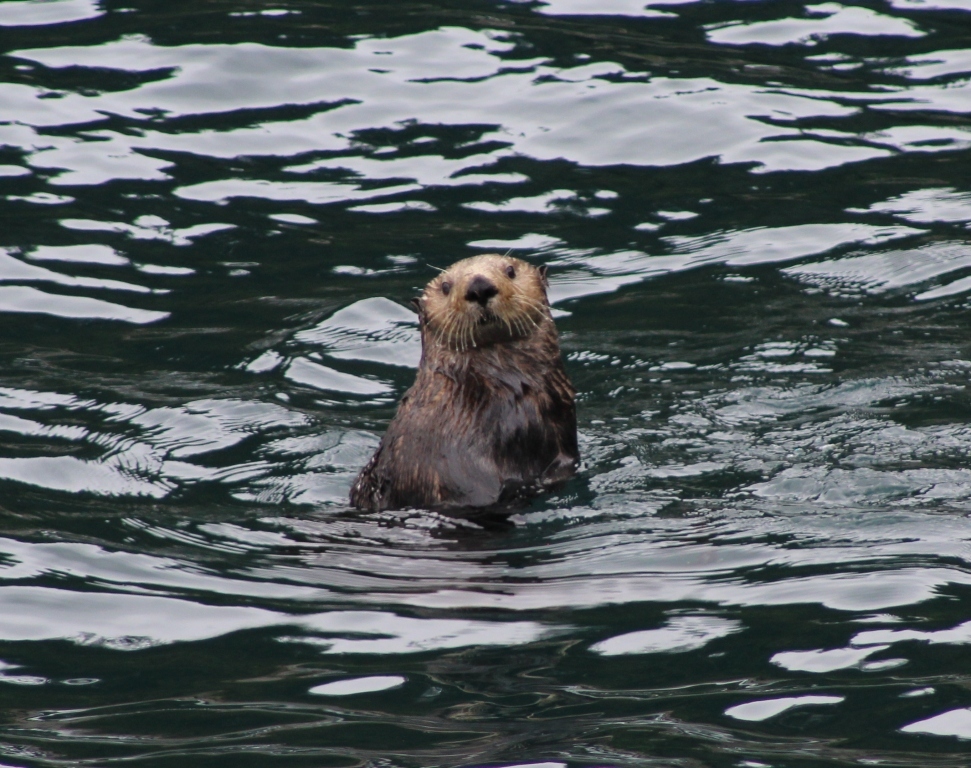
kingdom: Animalia
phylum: Chordata
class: Mammalia
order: Carnivora
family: Mustelidae
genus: Enhydra
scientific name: Enhydra lutris
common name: Sea otter
